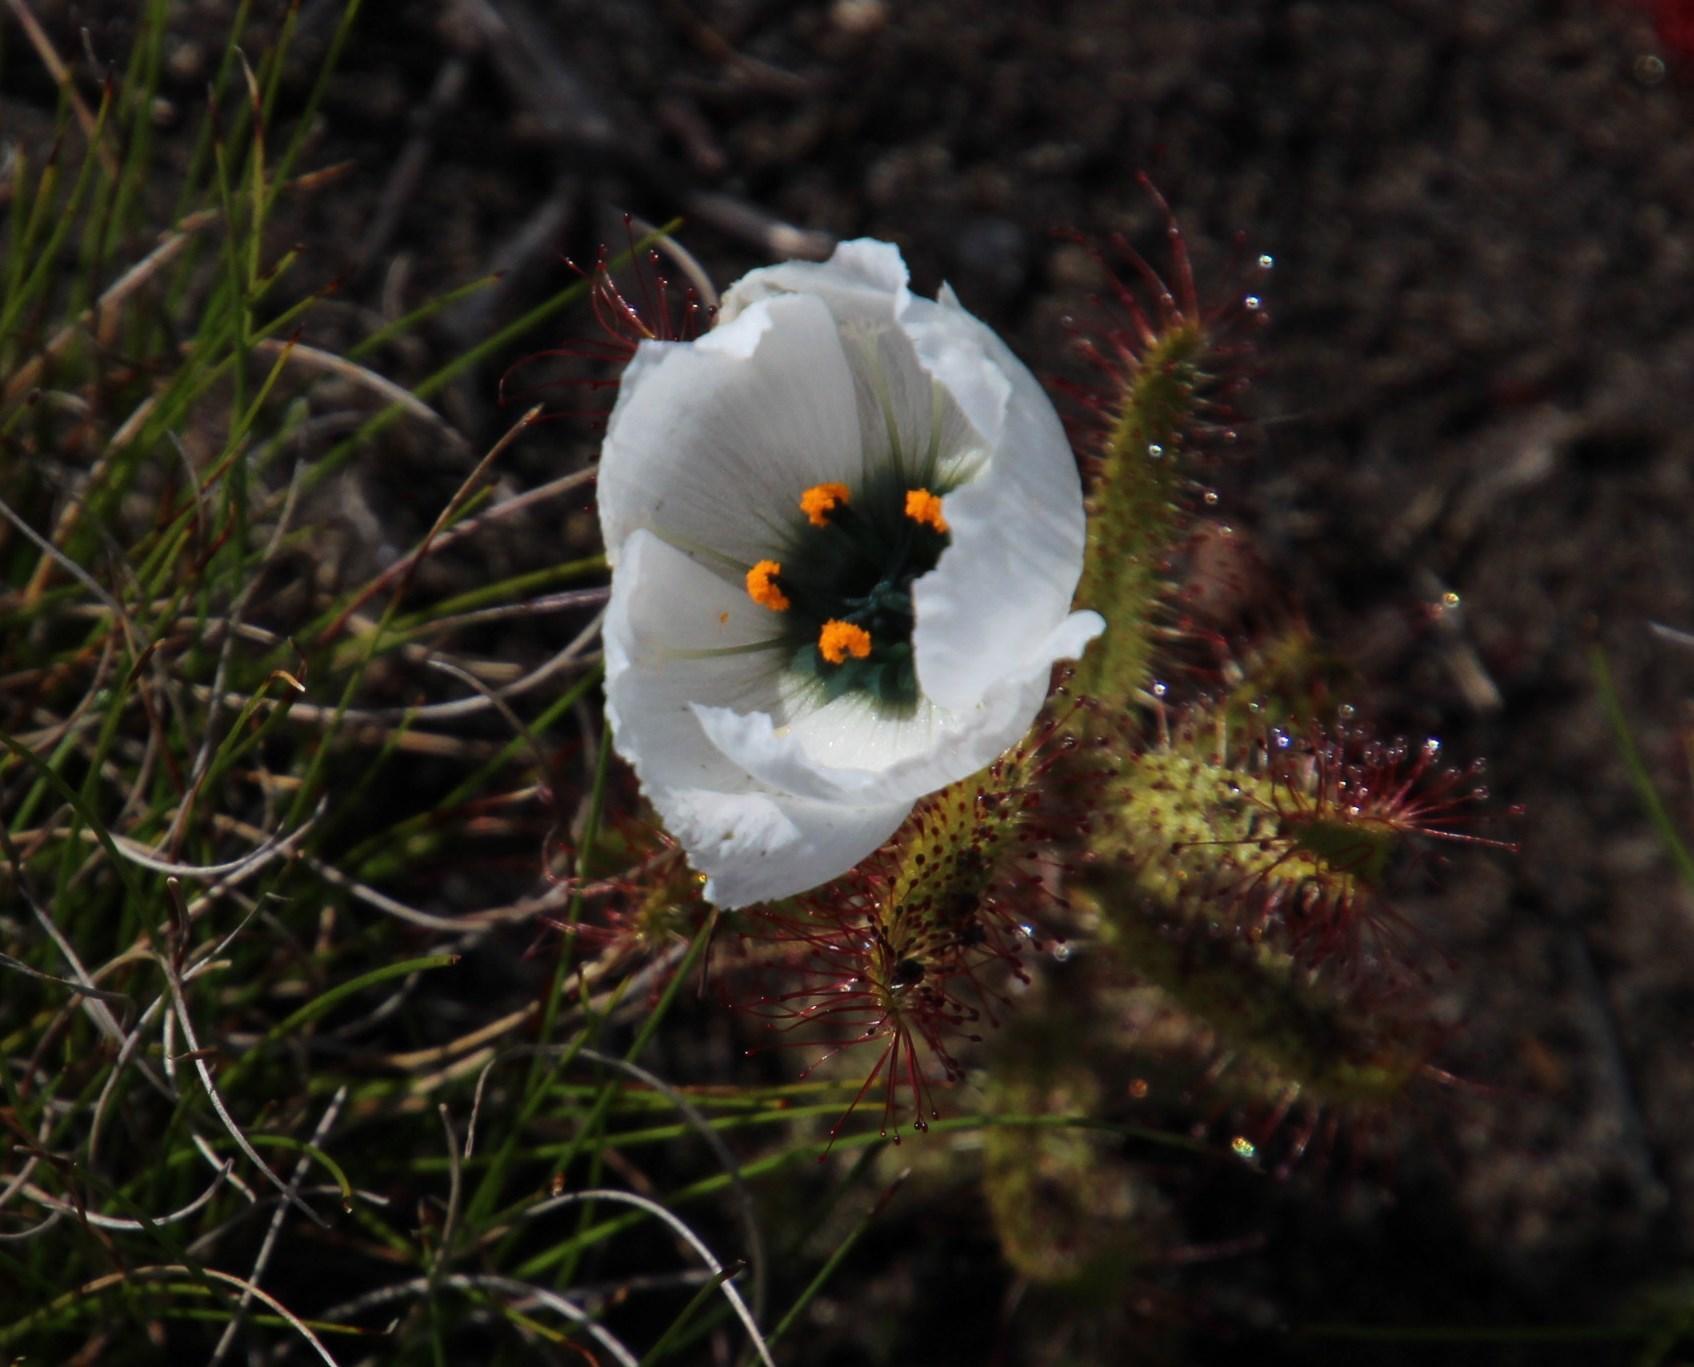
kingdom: Plantae
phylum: Tracheophyta
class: Magnoliopsida
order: Caryophyllales
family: Droseraceae
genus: Drosera
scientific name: Drosera cistiflora
